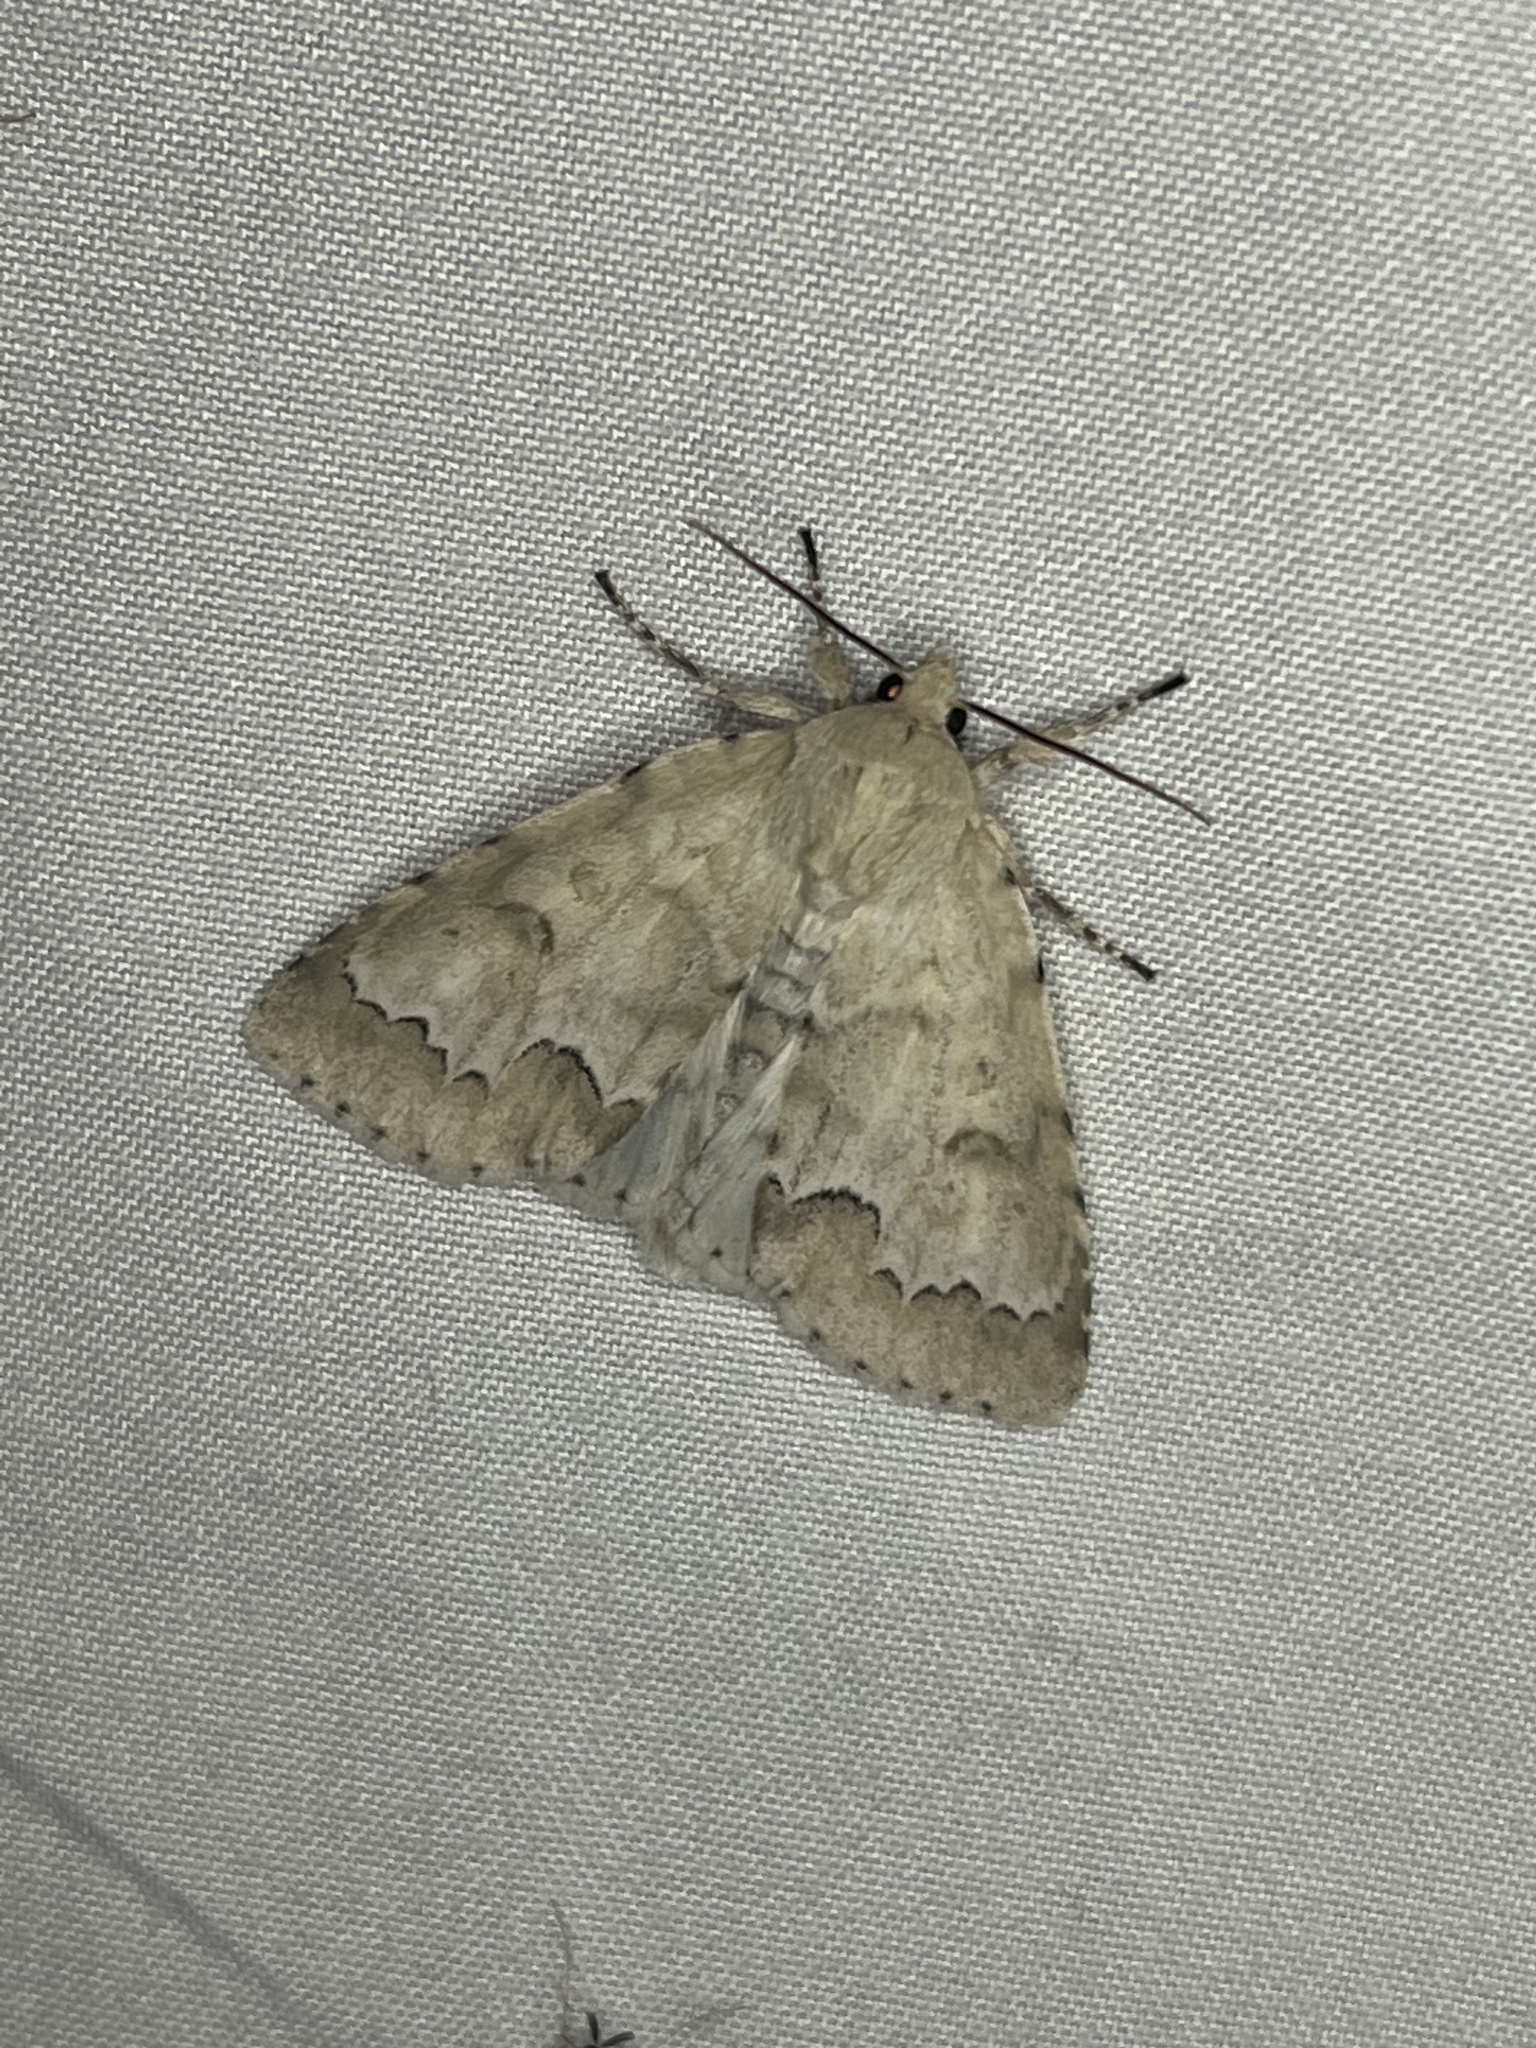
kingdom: Animalia
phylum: Arthropoda
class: Insecta
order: Lepidoptera
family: Noctuidae
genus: Acronicta
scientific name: Acronicta innotata
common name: Unmarked dagger
